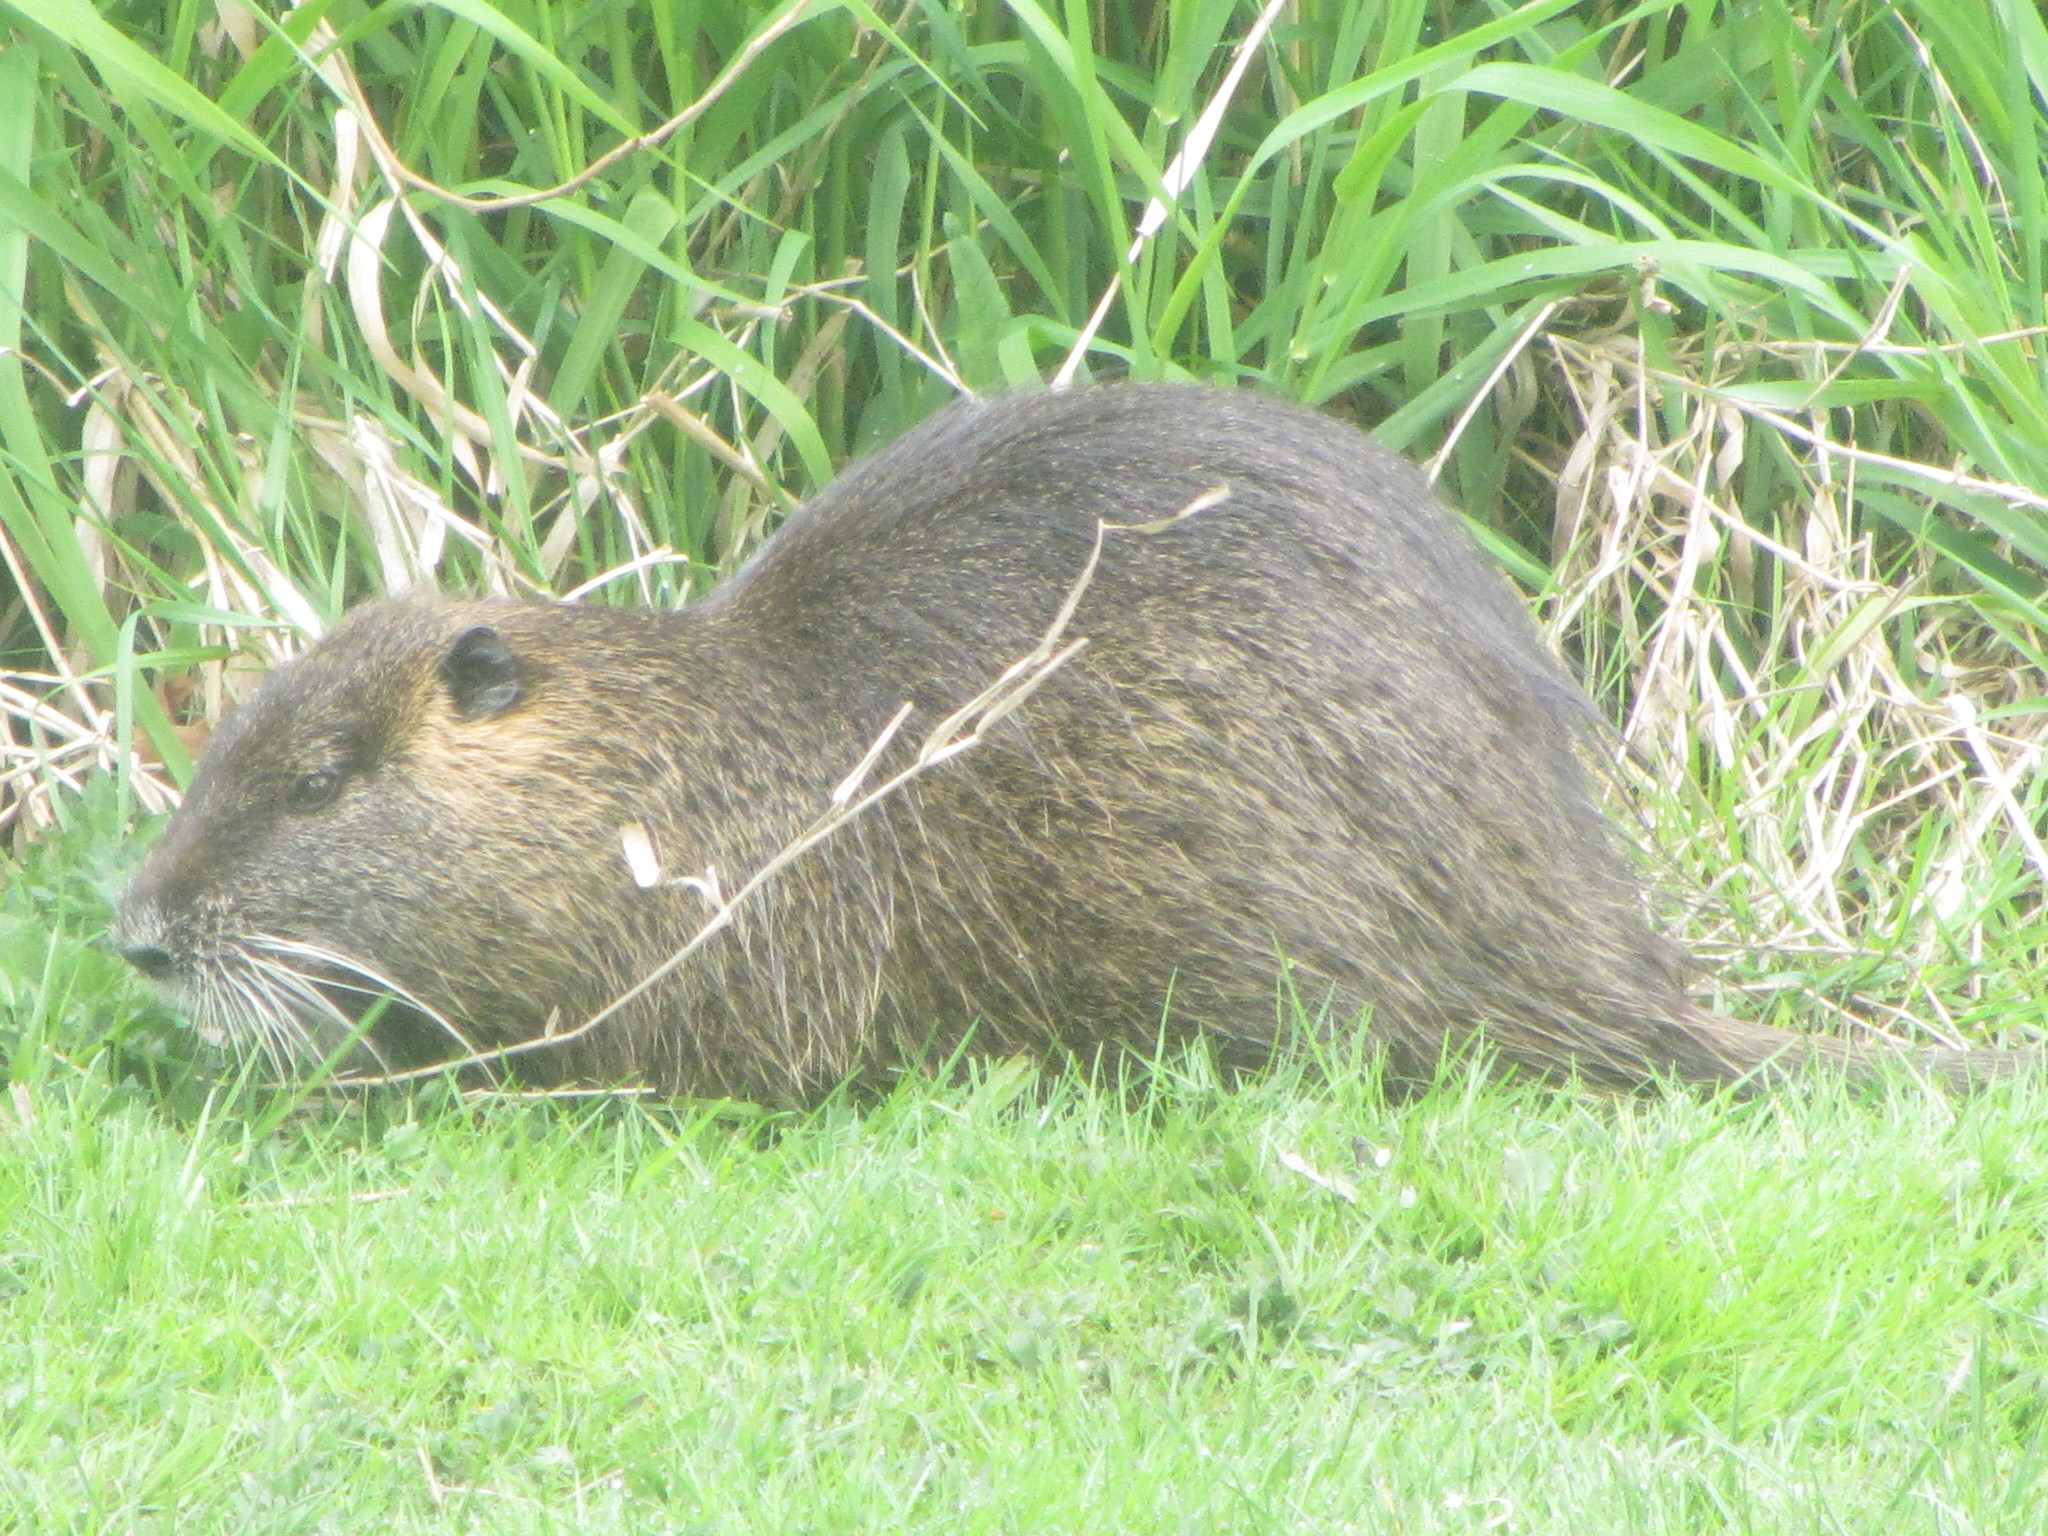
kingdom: Animalia
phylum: Chordata
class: Mammalia
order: Rodentia
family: Myocastoridae
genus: Myocastor
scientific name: Myocastor coypus
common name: Coypu
